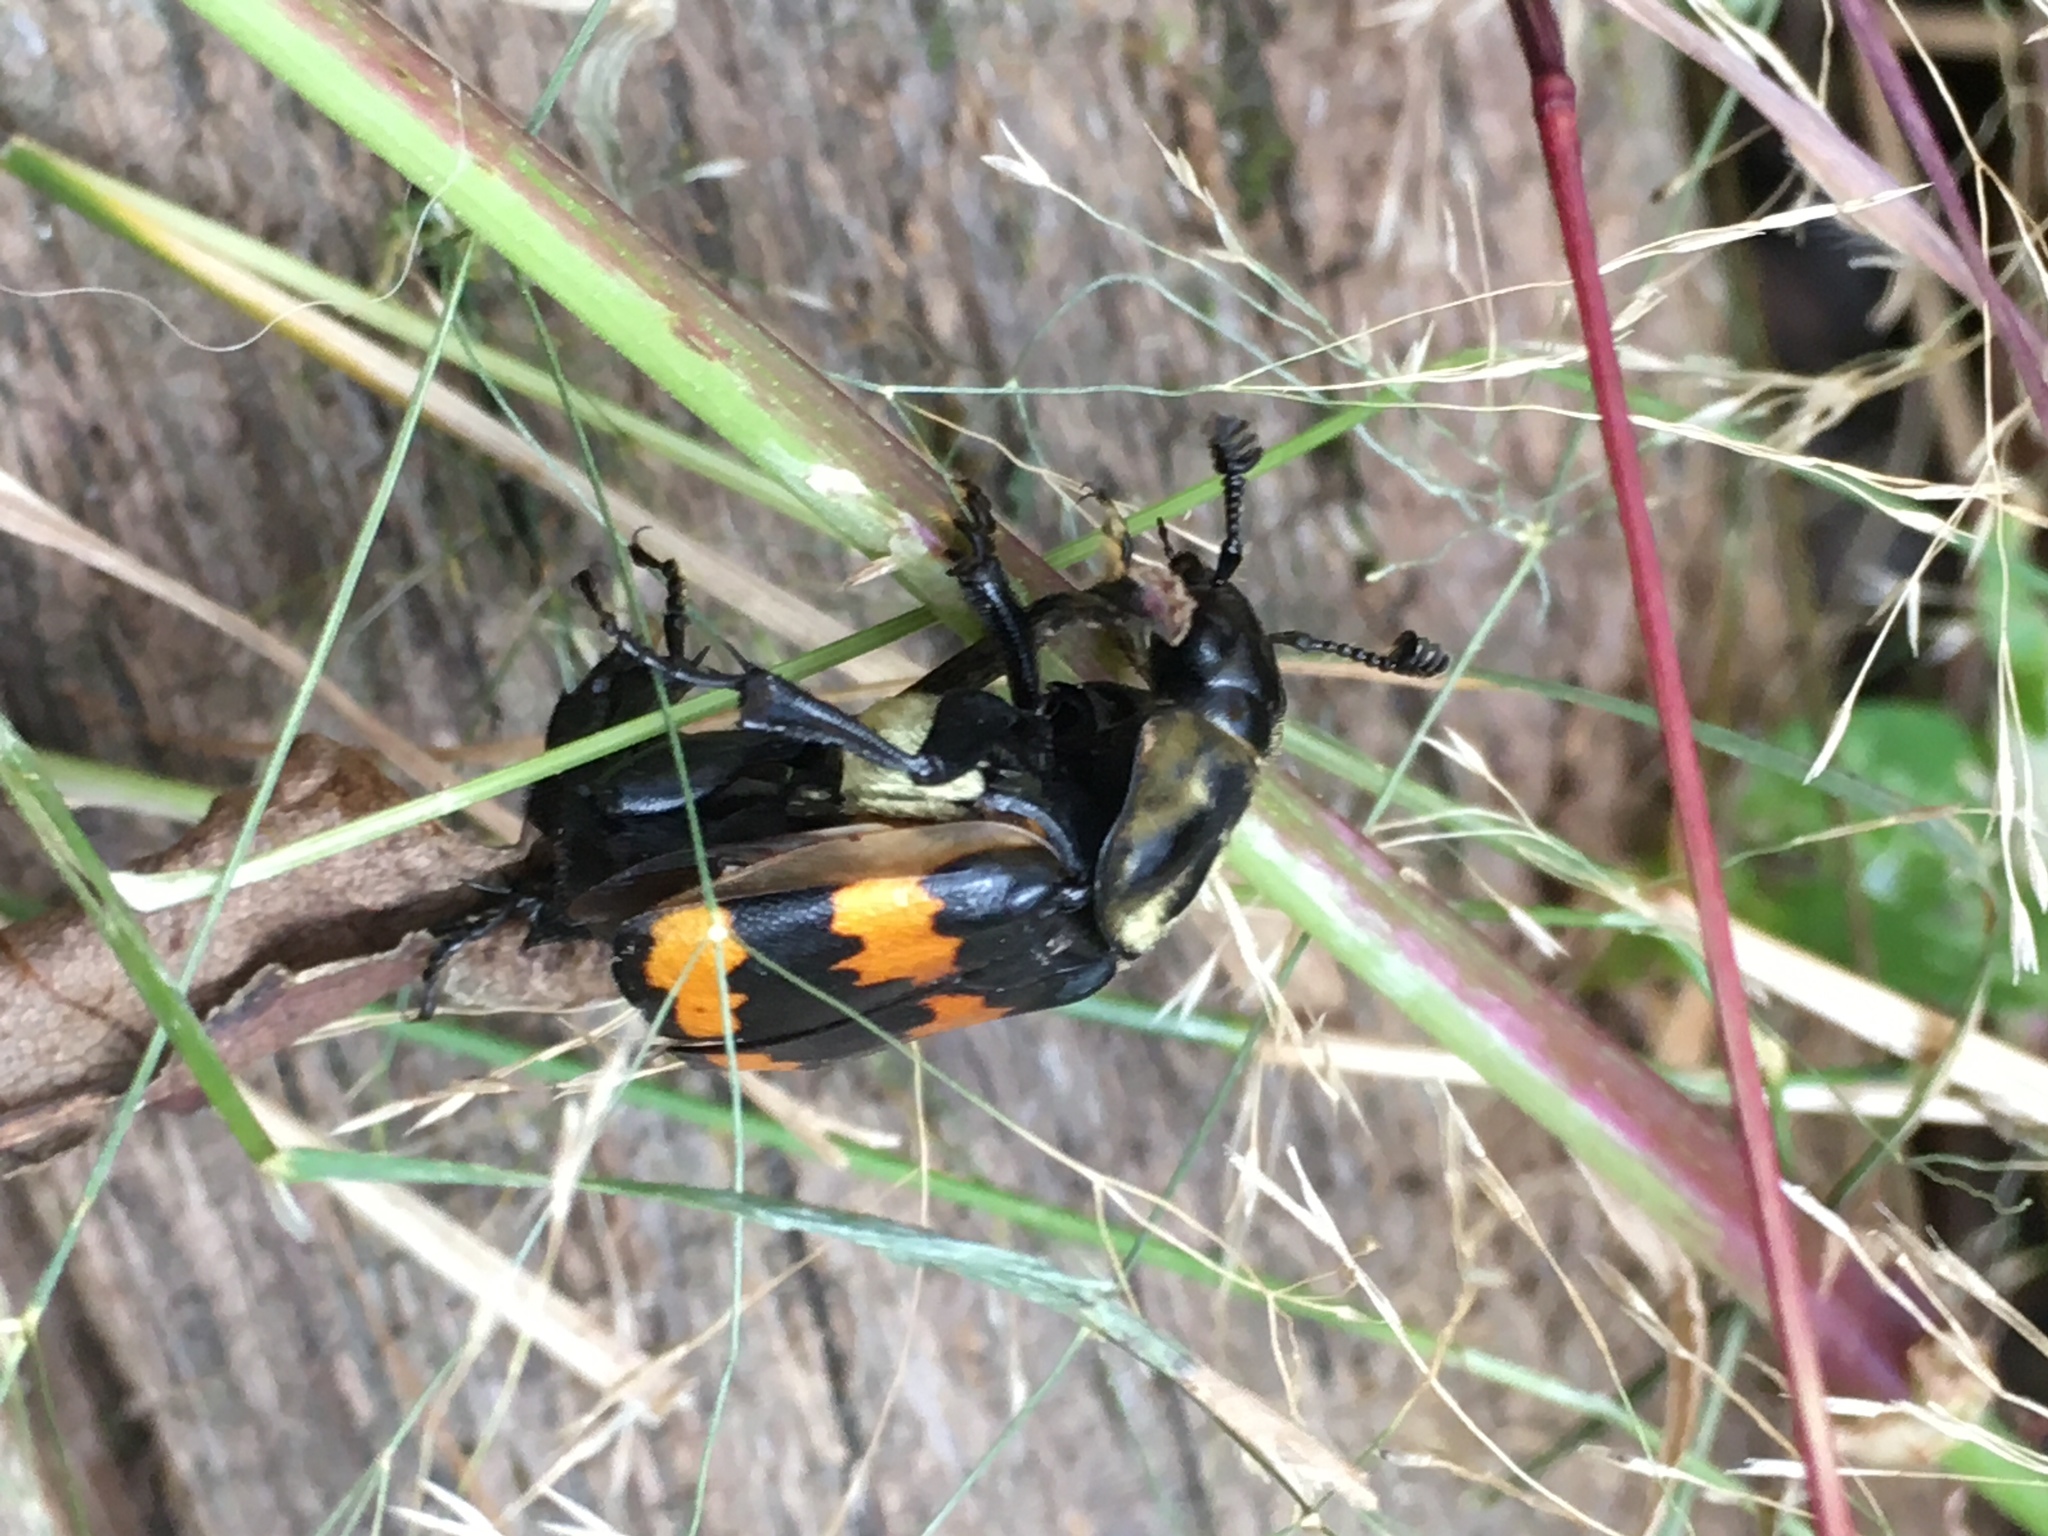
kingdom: Animalia
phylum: Arthropoda
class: Insecta
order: Coleoptera
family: Staphylinidae
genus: Nicrophorus
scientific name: Nicrophorus tomentosus
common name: Tomentose burying beetle
